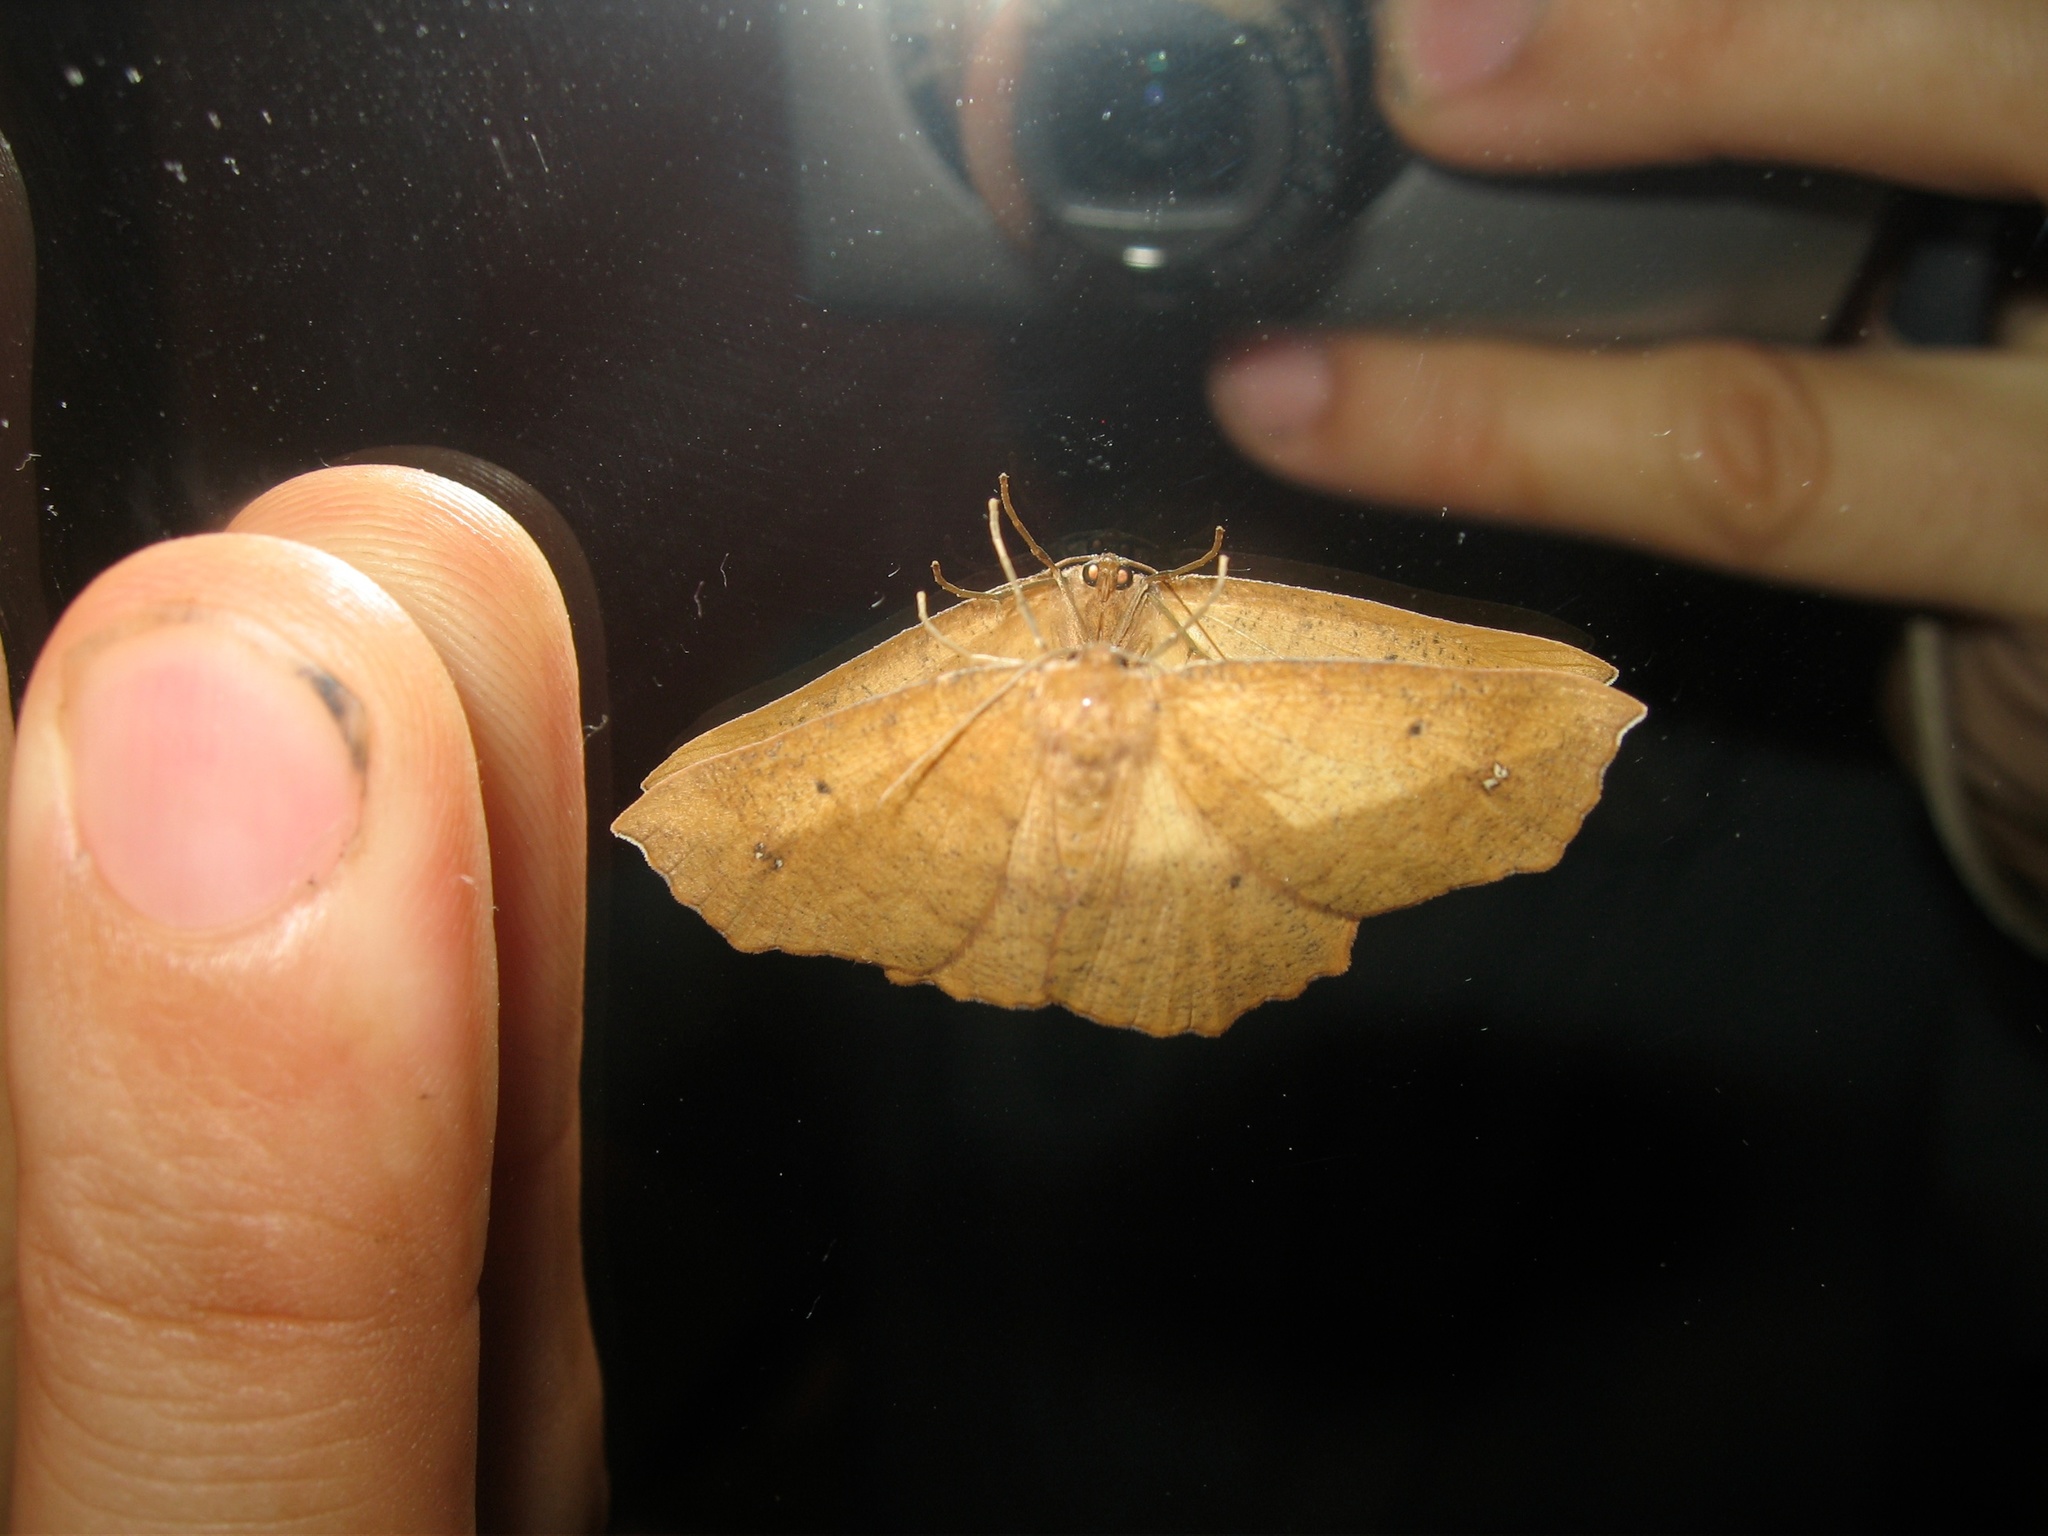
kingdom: Animalia
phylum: Arthropoda
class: Insecta
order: Lepidoptera
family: Geometridae
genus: Xyridacma
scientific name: Xyridacma ustaria
